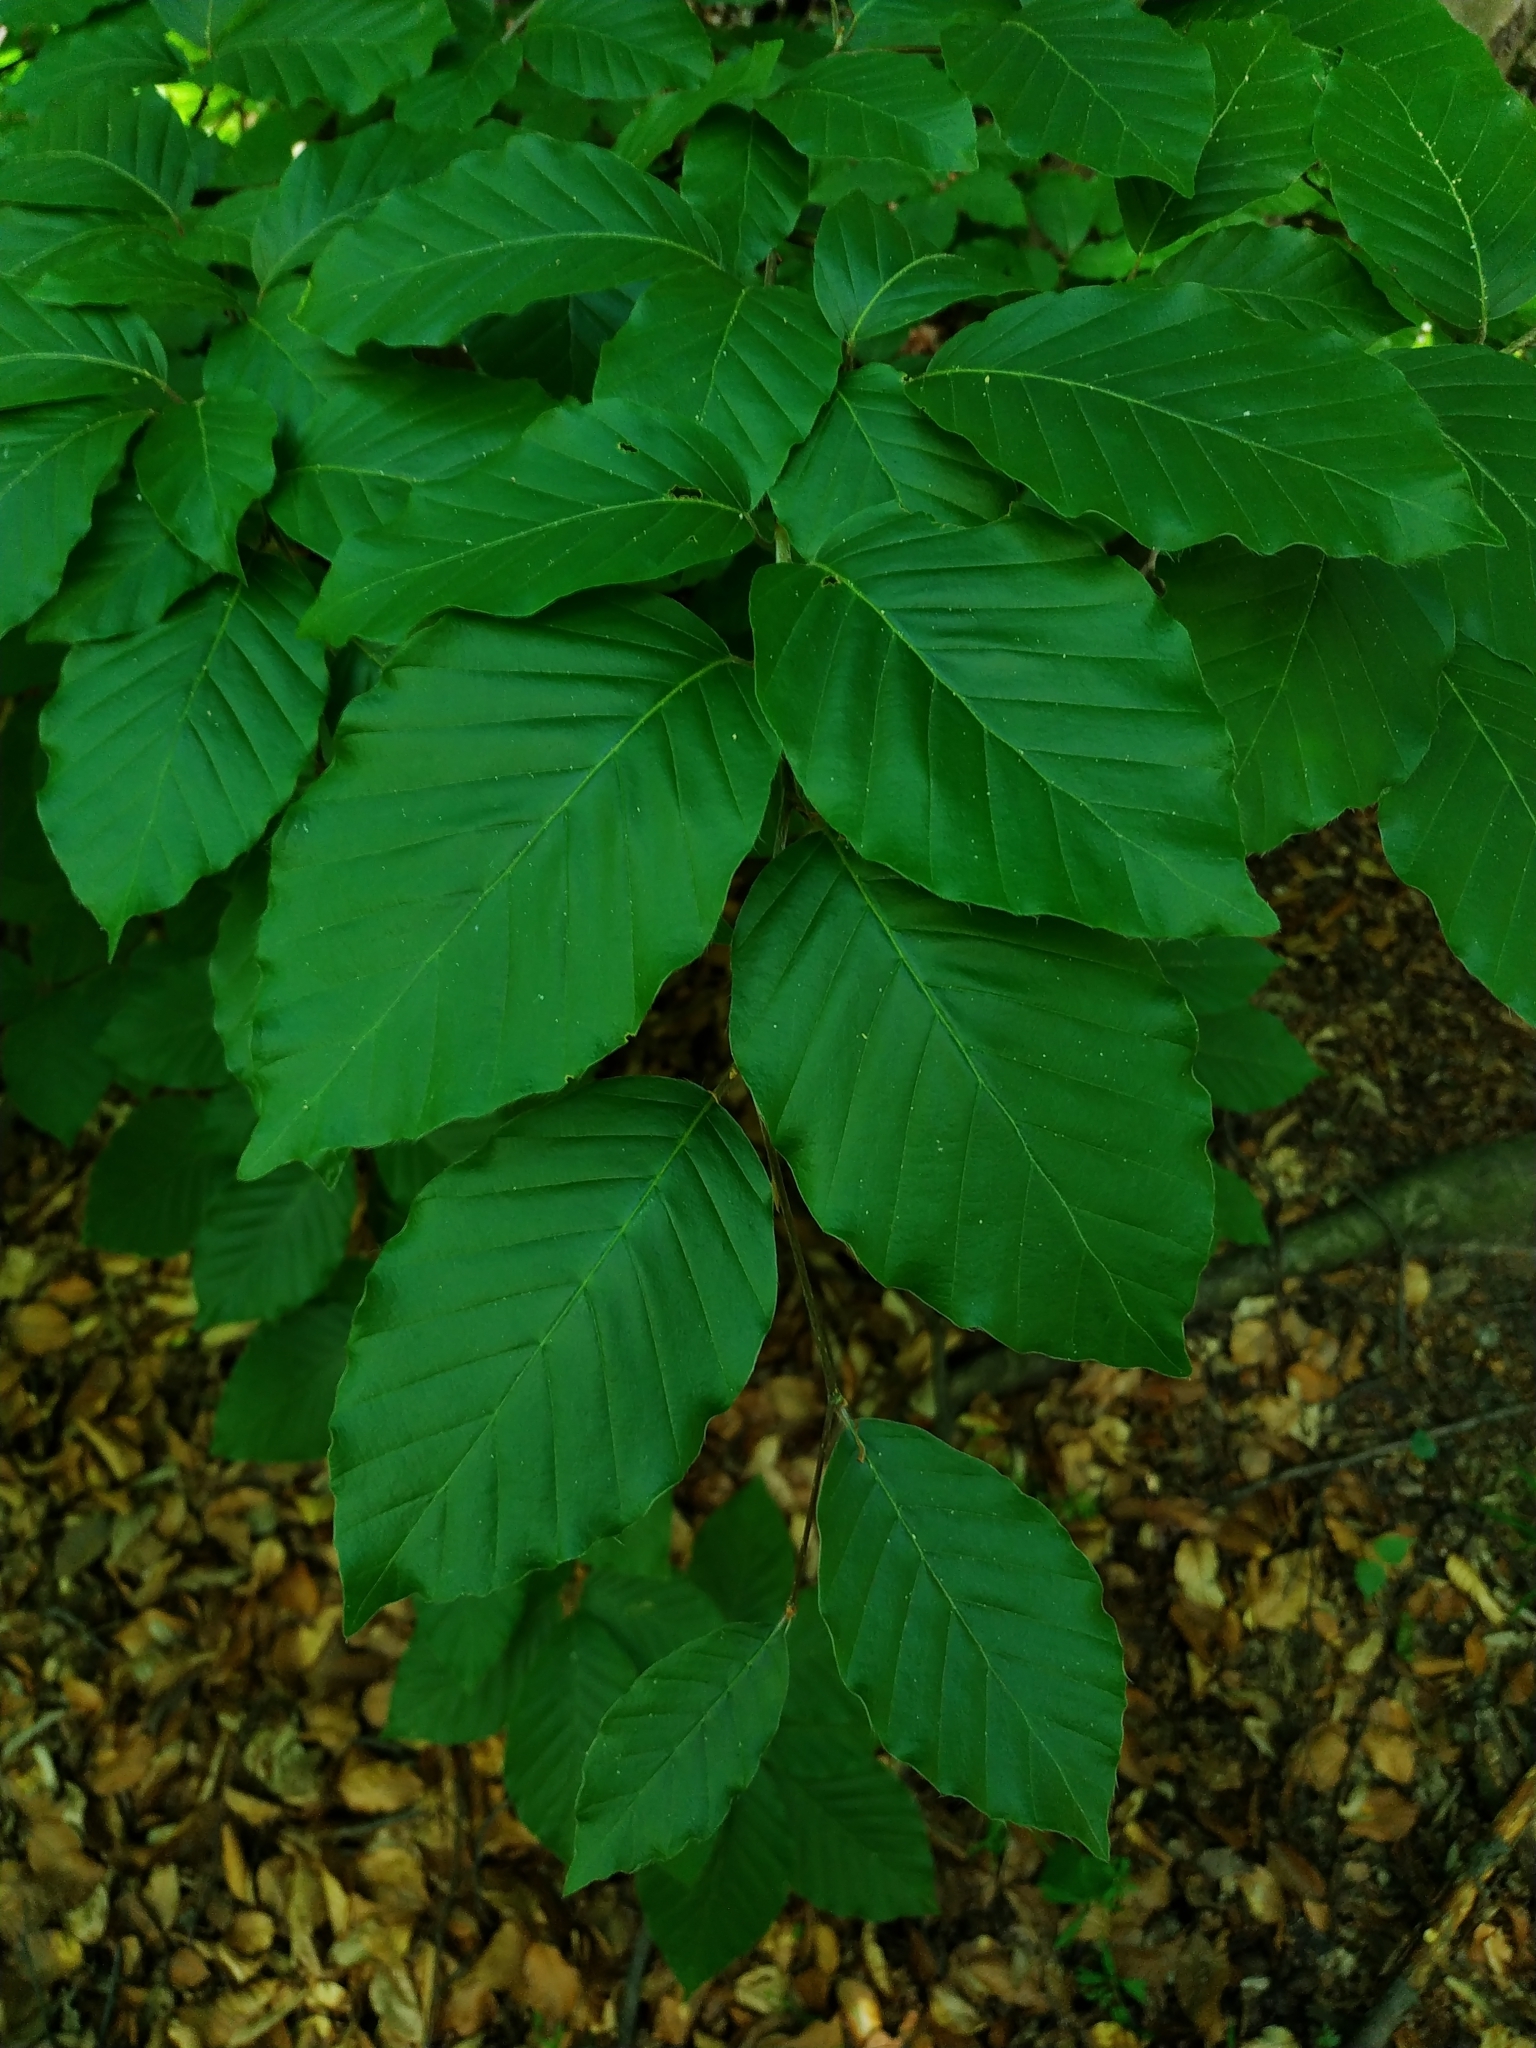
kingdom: Plantae
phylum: Tracheophyta
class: Magnoliopsida
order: Fagales
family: Fagaceae
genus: Fagus
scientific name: Fagus sylvatica
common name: Beech
